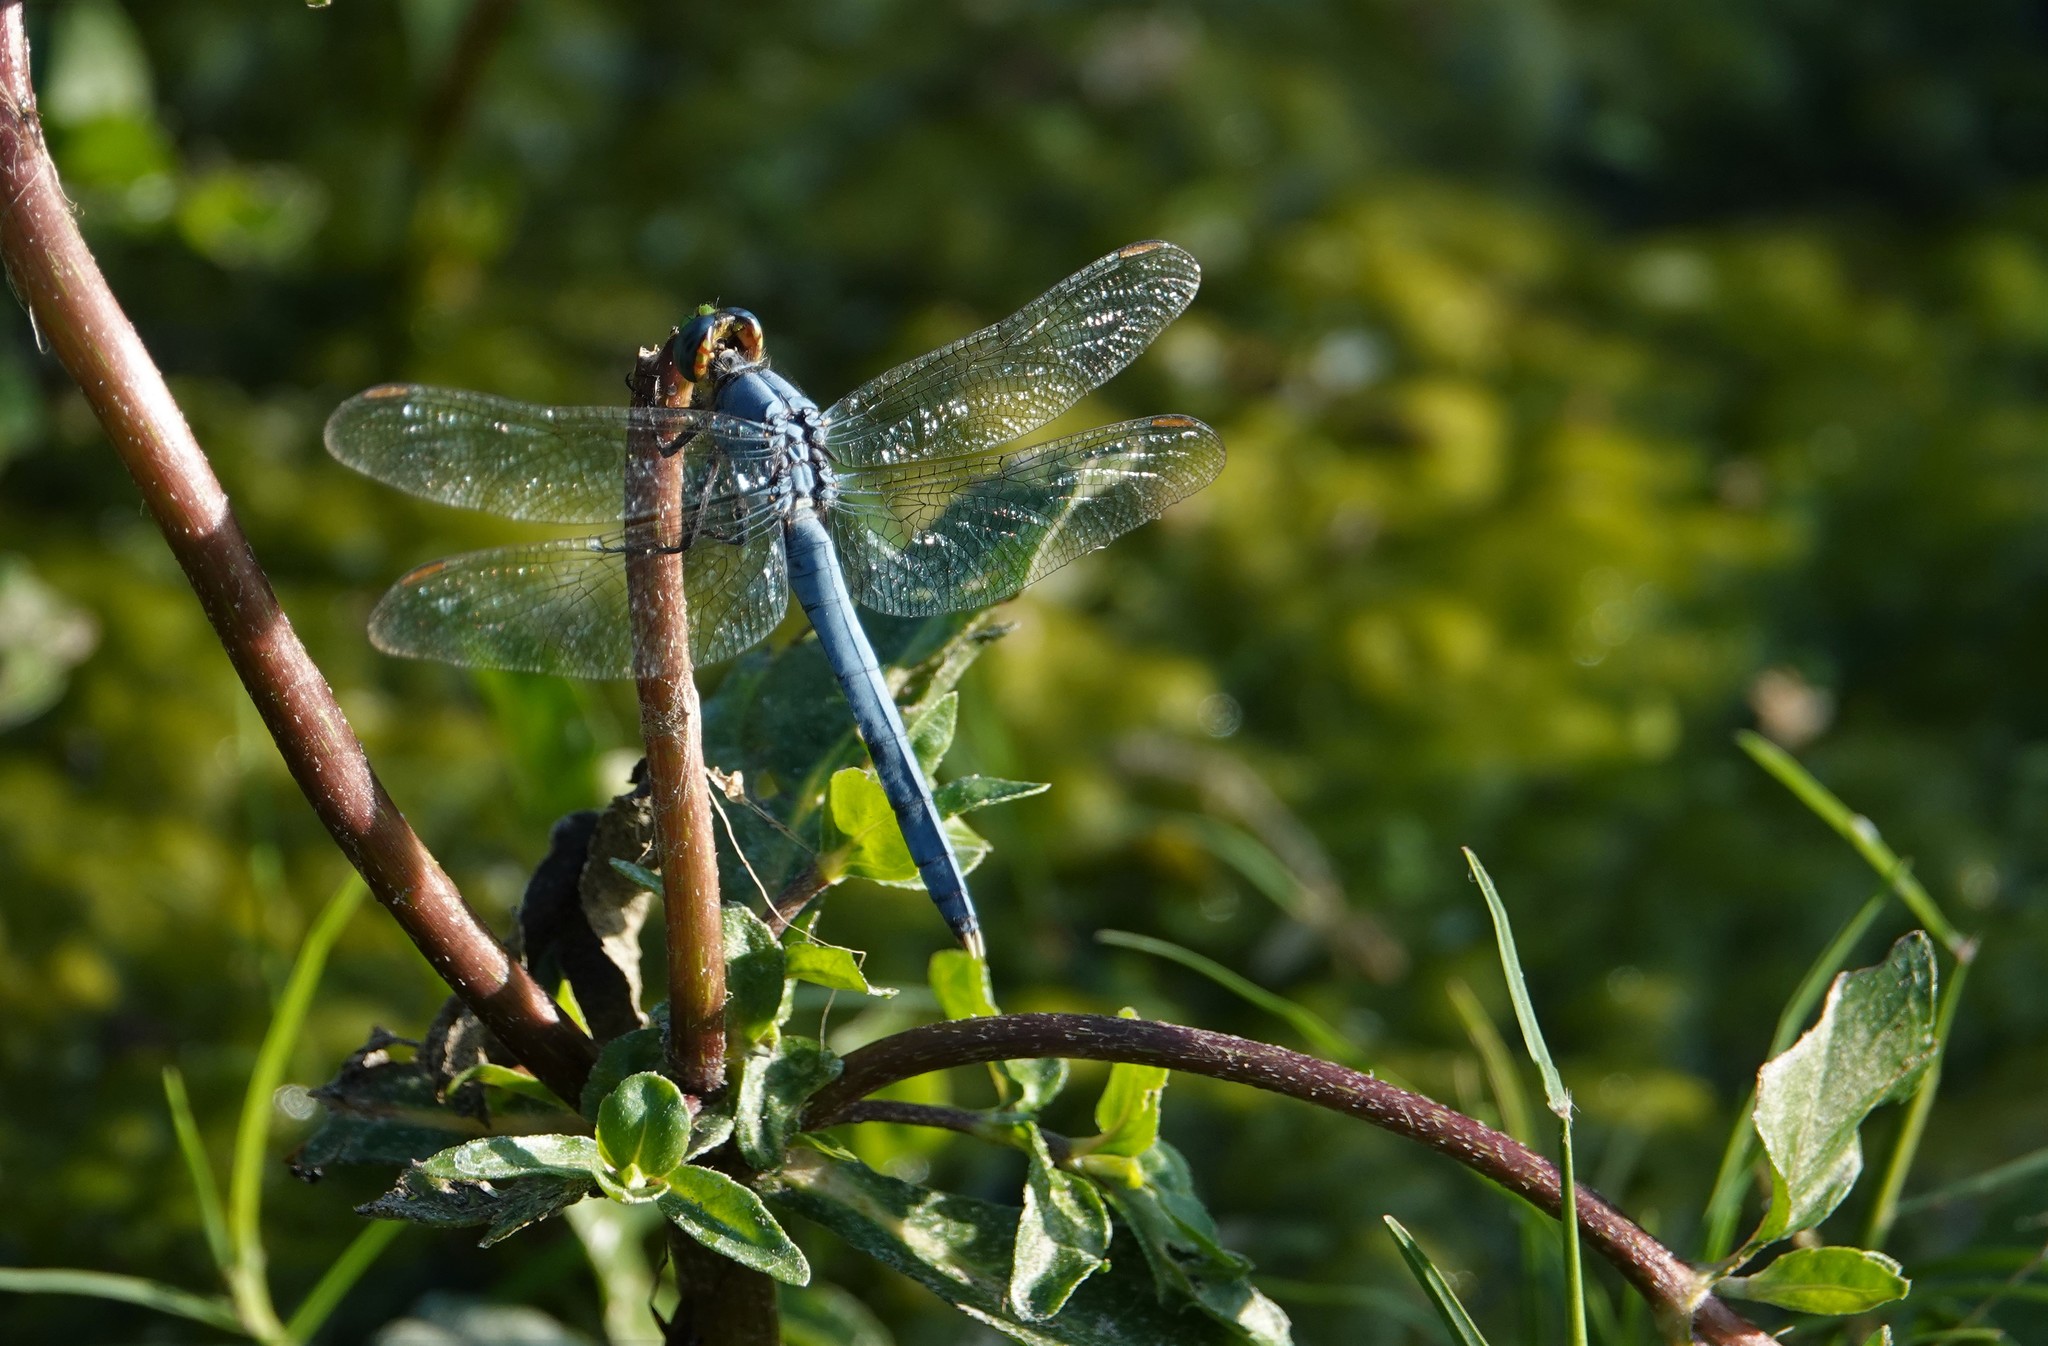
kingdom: Animalia
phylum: Arthropoda
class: Insecta
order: Odonata
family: Libellulidae
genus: Erythemis
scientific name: Erythemis simplicicollis
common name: Eastern pondhawk
